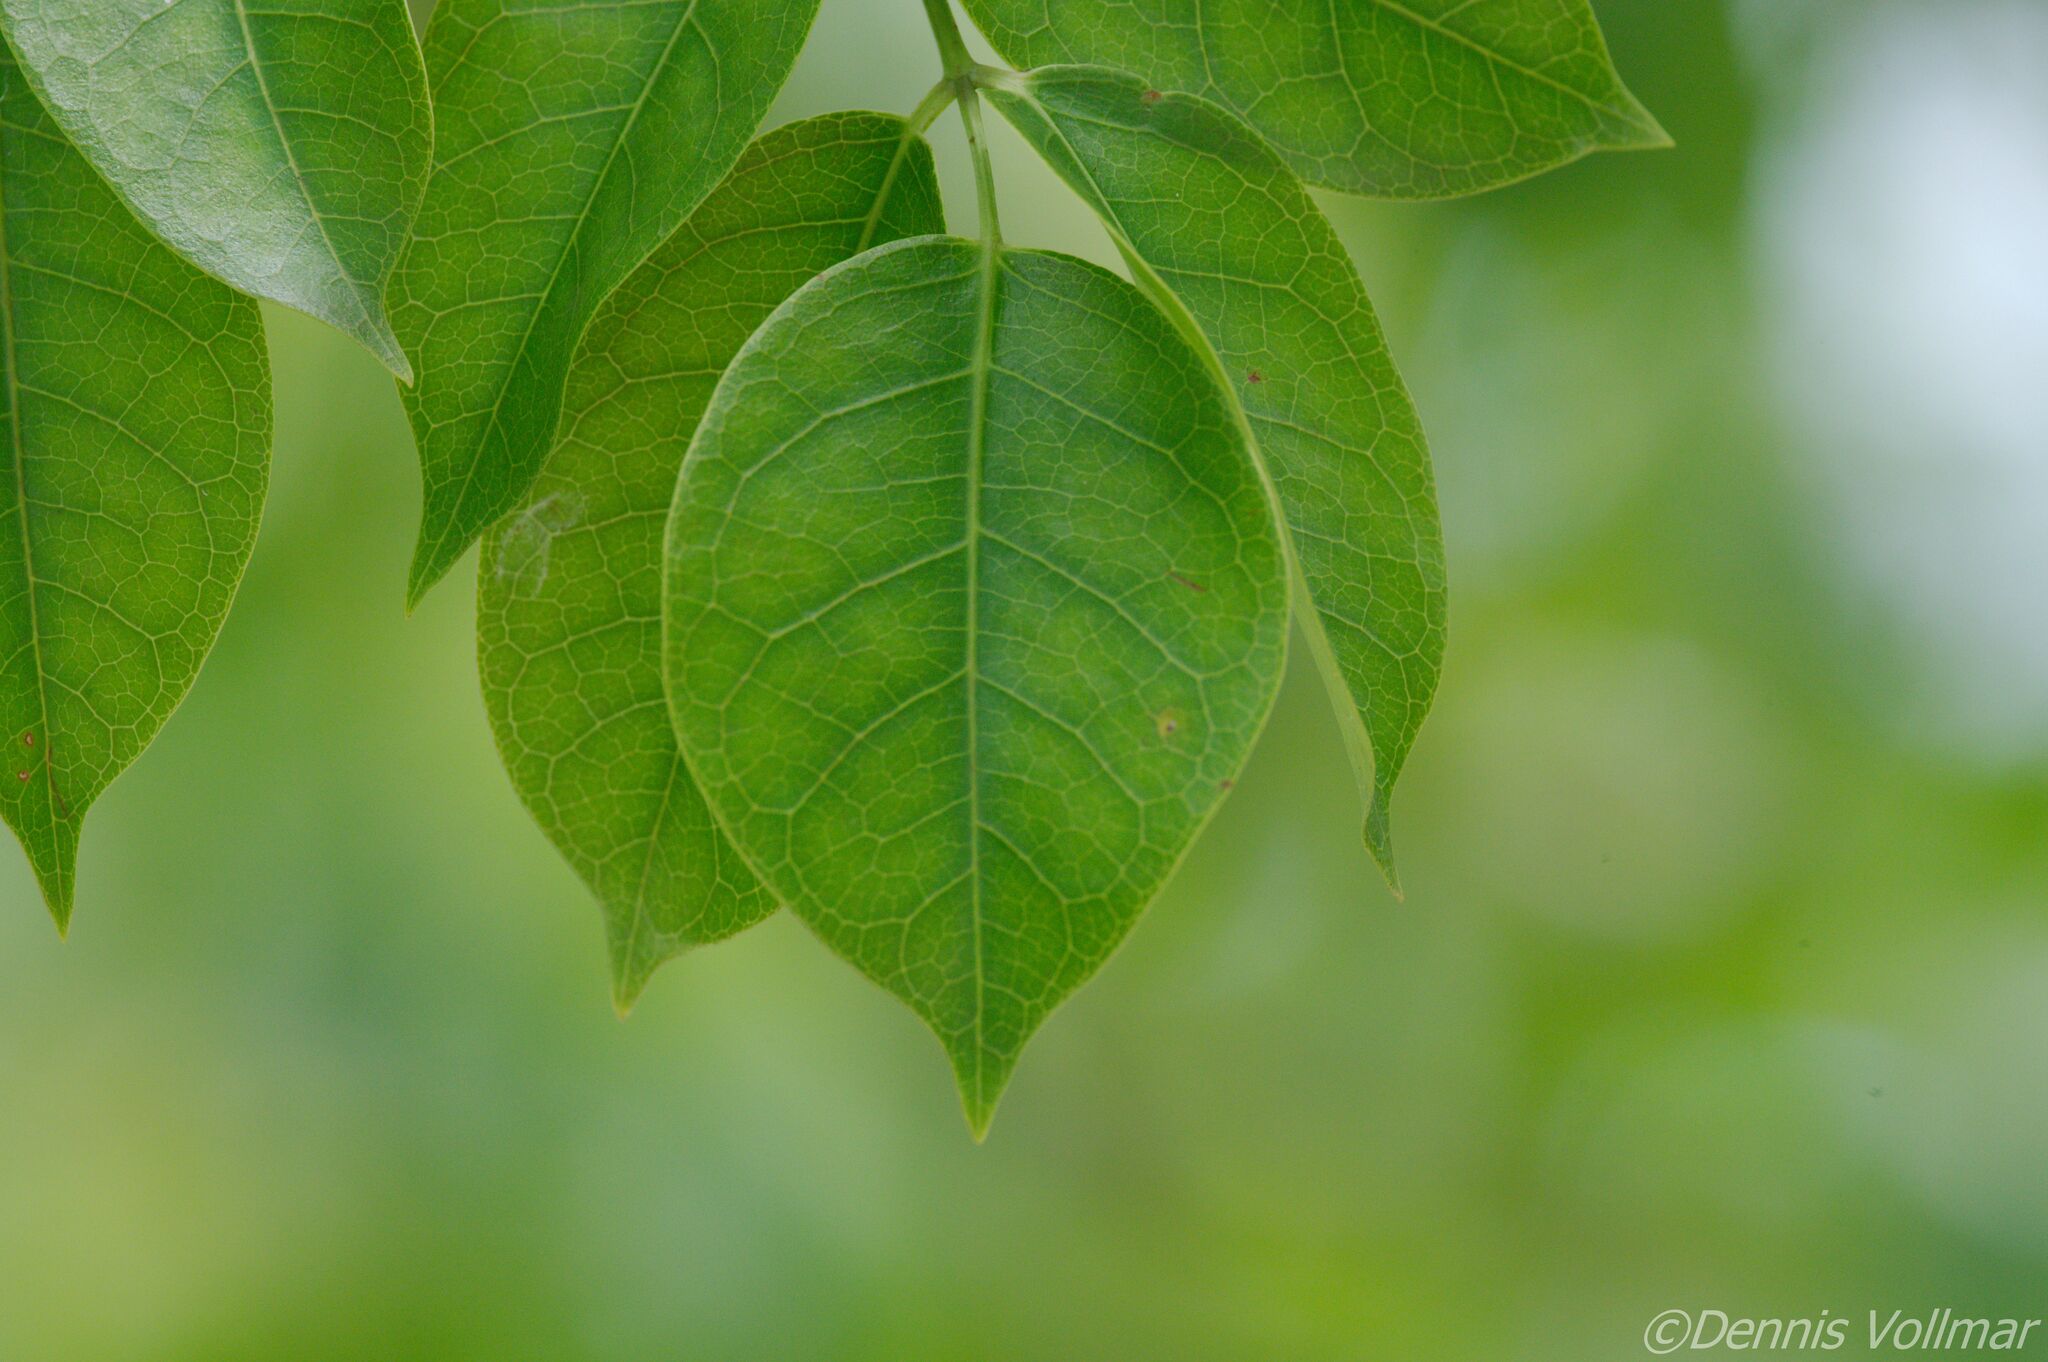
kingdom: Plantae
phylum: Tracheophyta
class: Magnoliopsida
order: Sapindales
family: Burseraceae
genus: Bursera
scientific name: Bursera simaruba
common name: Turpentine tree
